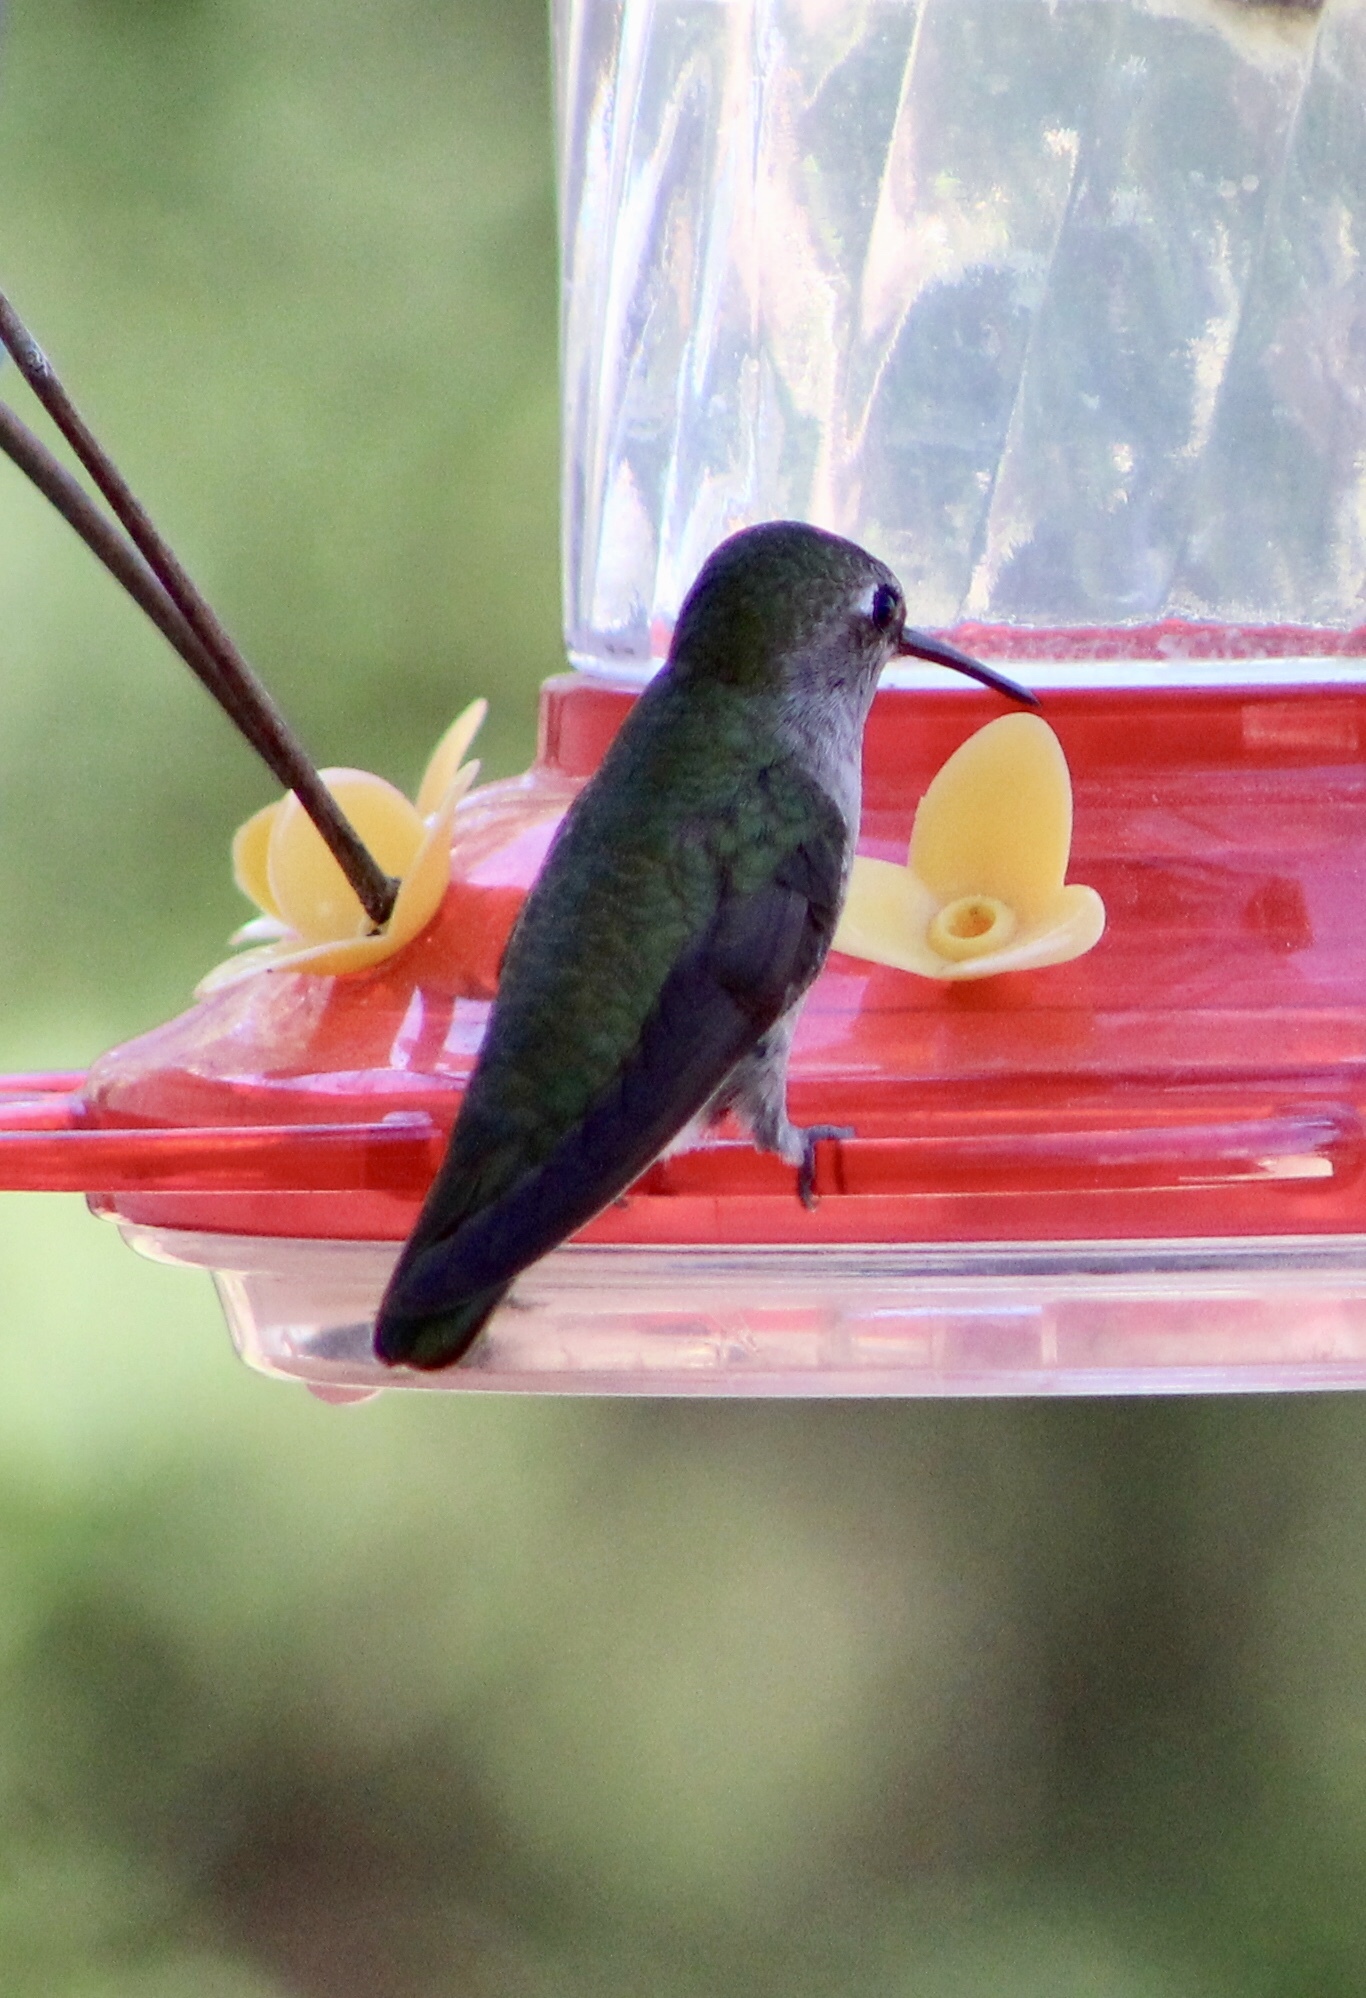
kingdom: Animalia
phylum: Chordata
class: Aves
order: Apodiformes
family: Trochilidae
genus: Calypte
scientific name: Calypte anna
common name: Anna's hummingbird
